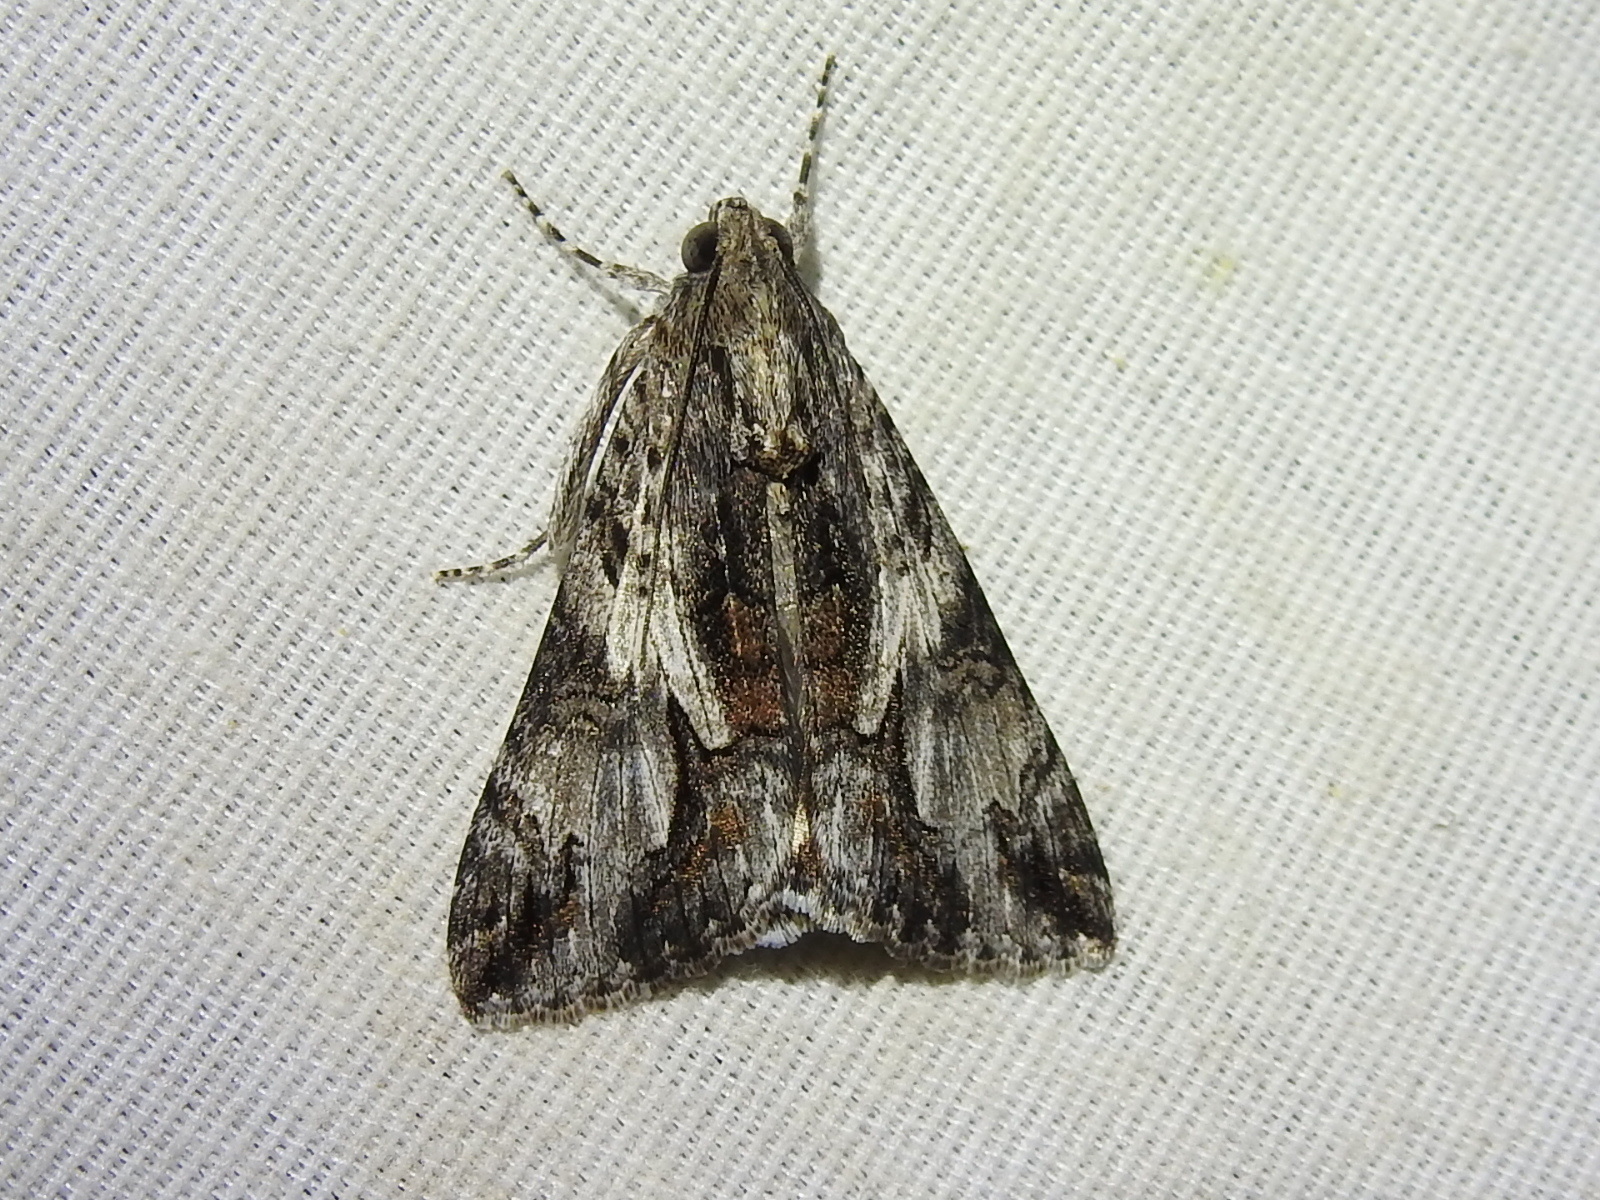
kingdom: Animalia
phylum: Arthropoda
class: Insecta
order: Lepidoptera
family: Erebidae
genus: Melipotis
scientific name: Melipotis jucunda
